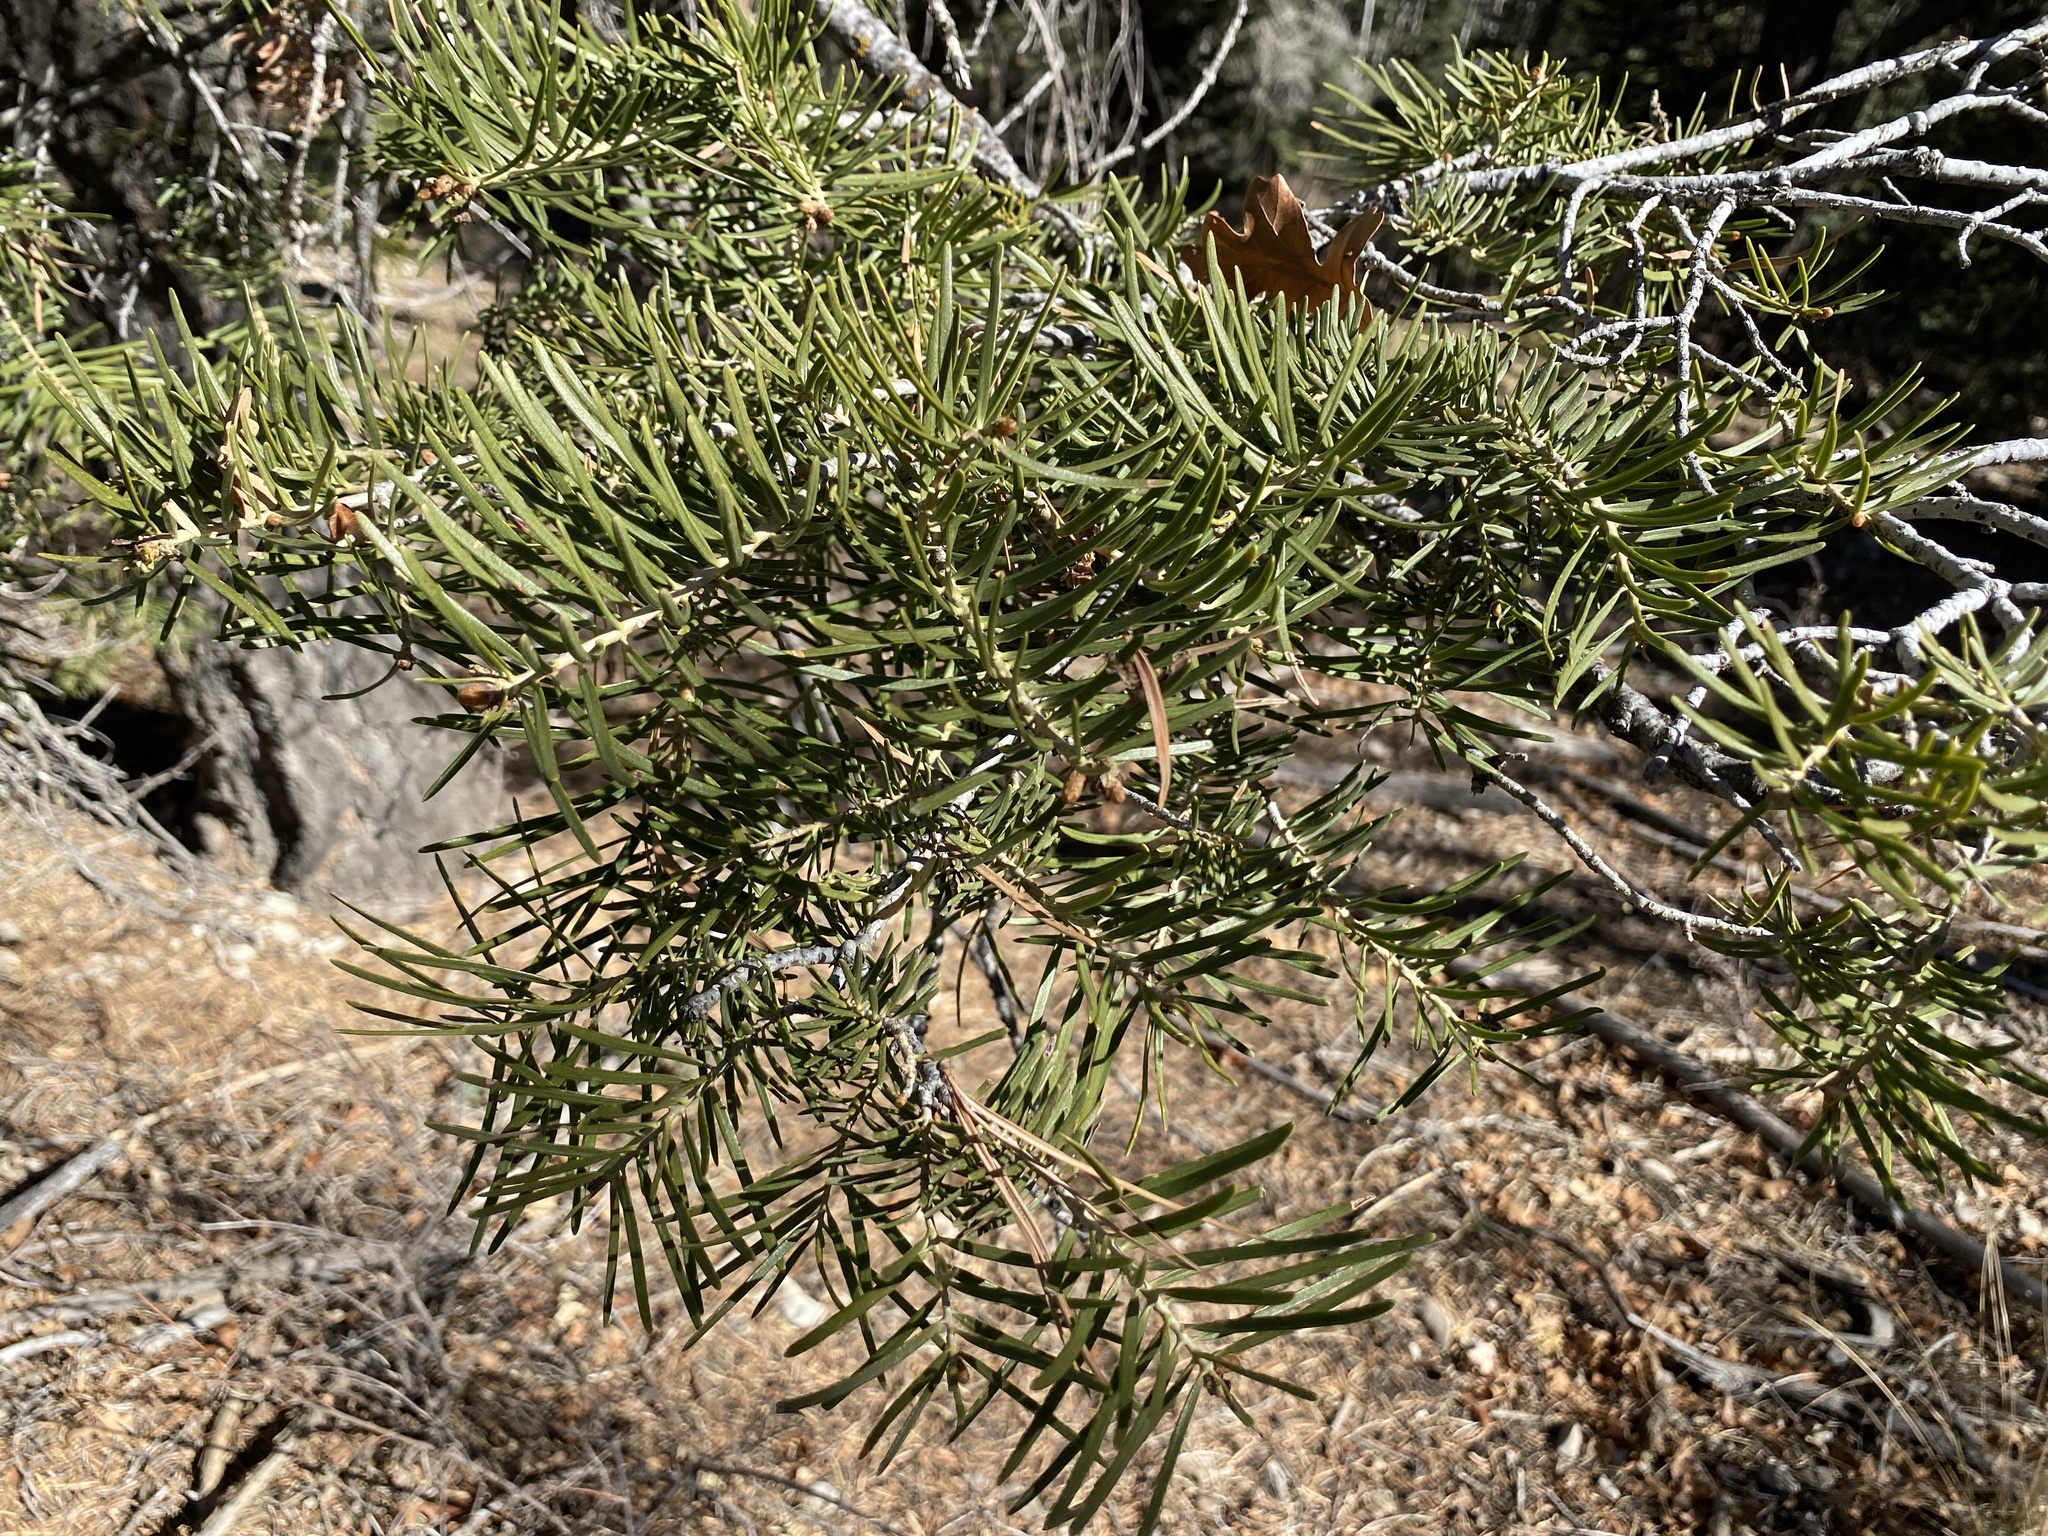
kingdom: Plantae
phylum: Tracheophyta
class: Pinopsida
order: Pinales
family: Pinaceae
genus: Abies
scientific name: Abies concolor
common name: Colorado fir
